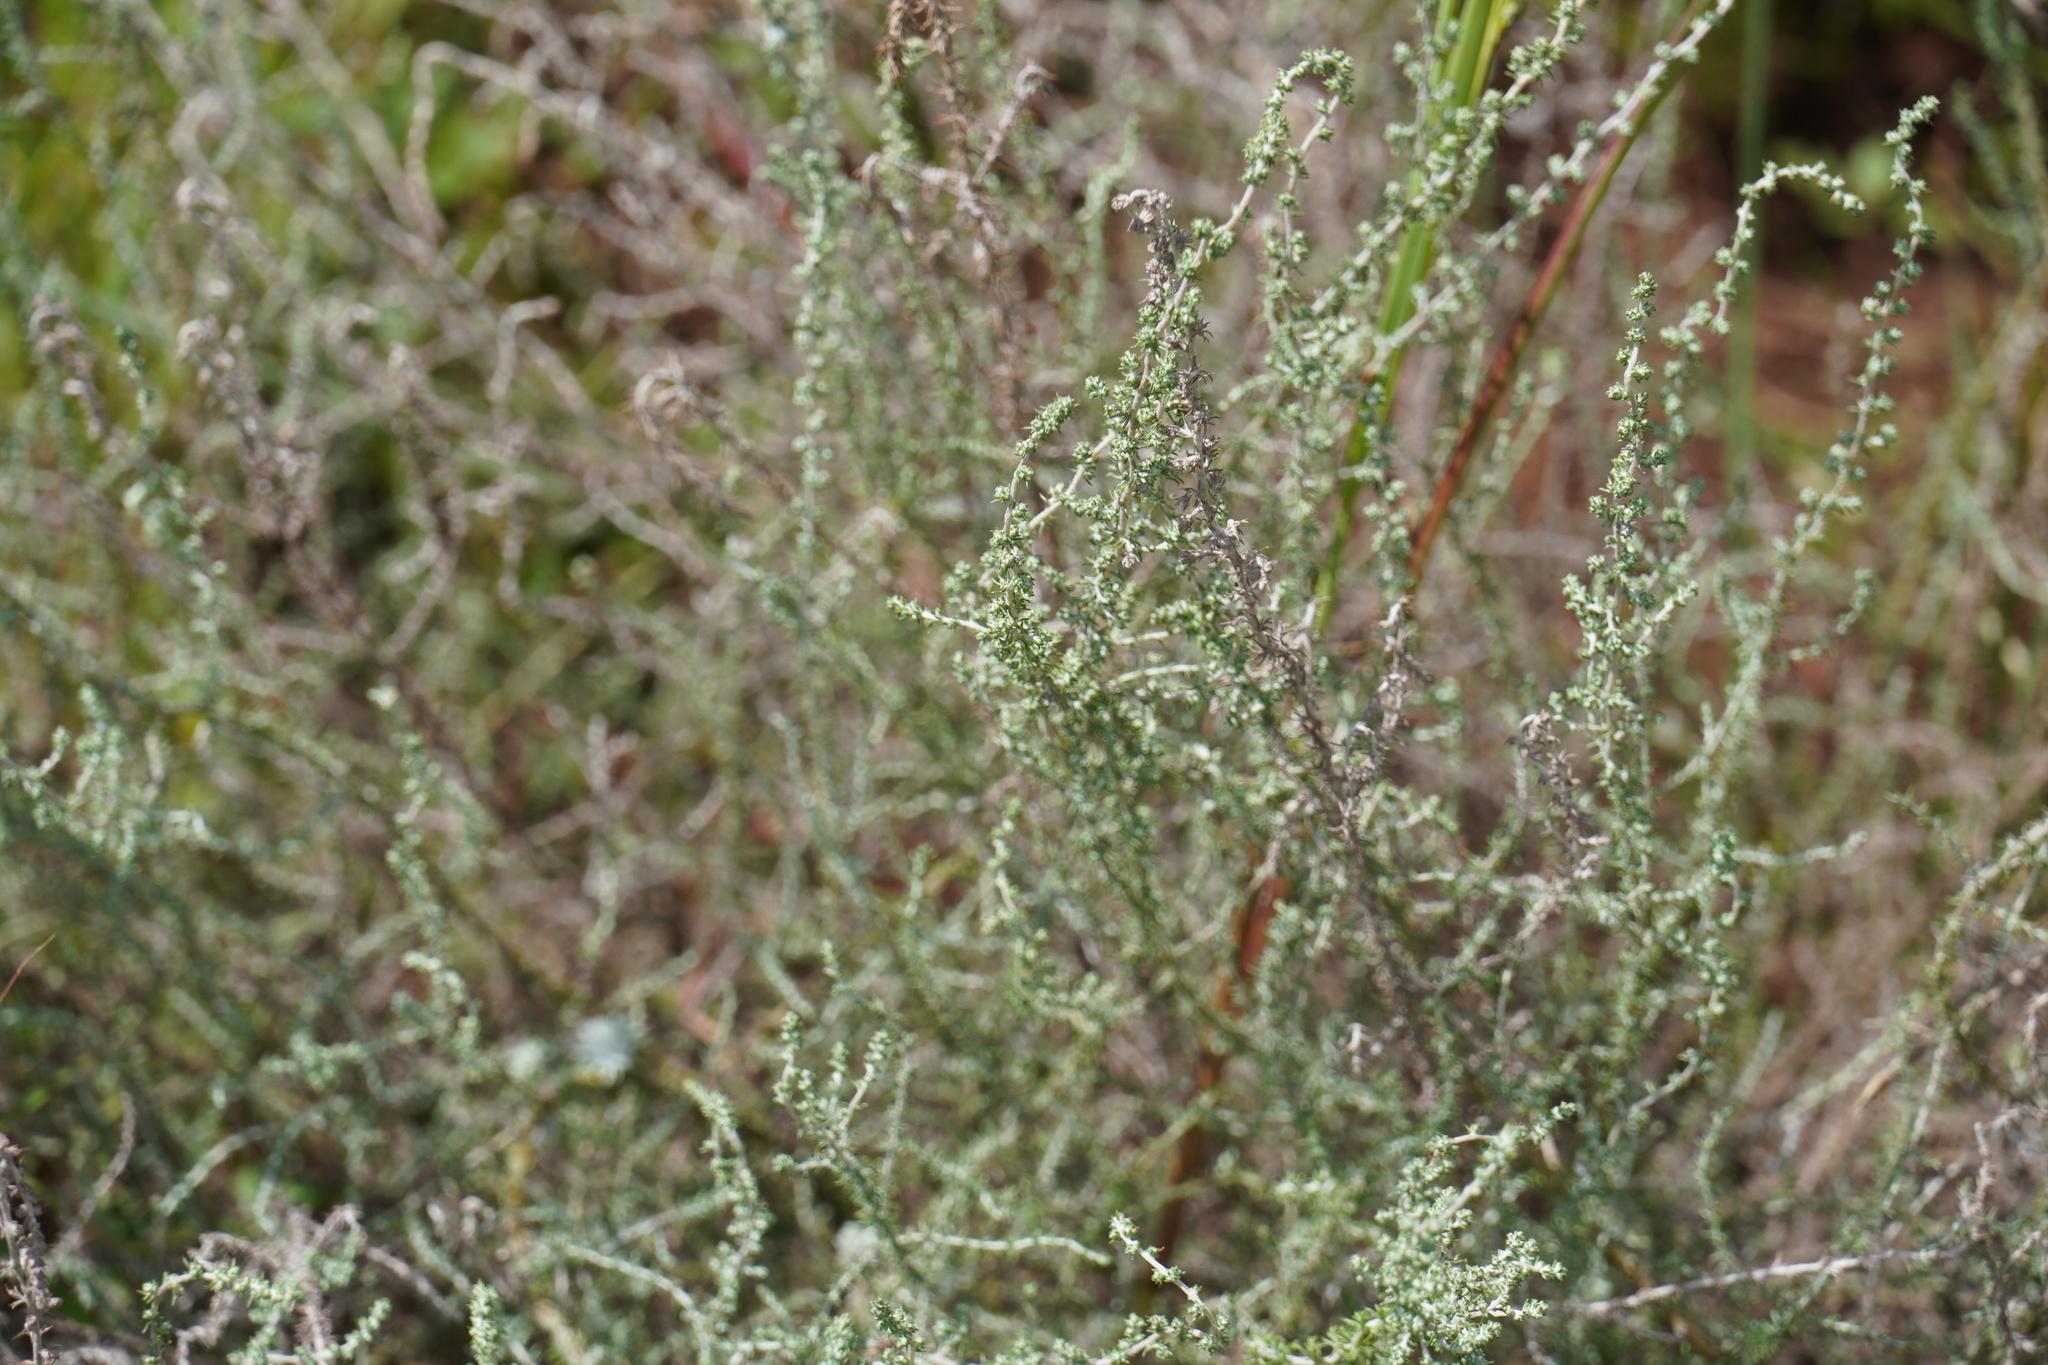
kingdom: Plantae
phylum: Tracheophyta
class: Magnoliopsida
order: Asterales
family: Asteraceae
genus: Seriphium
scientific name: Seriphium plumosum
